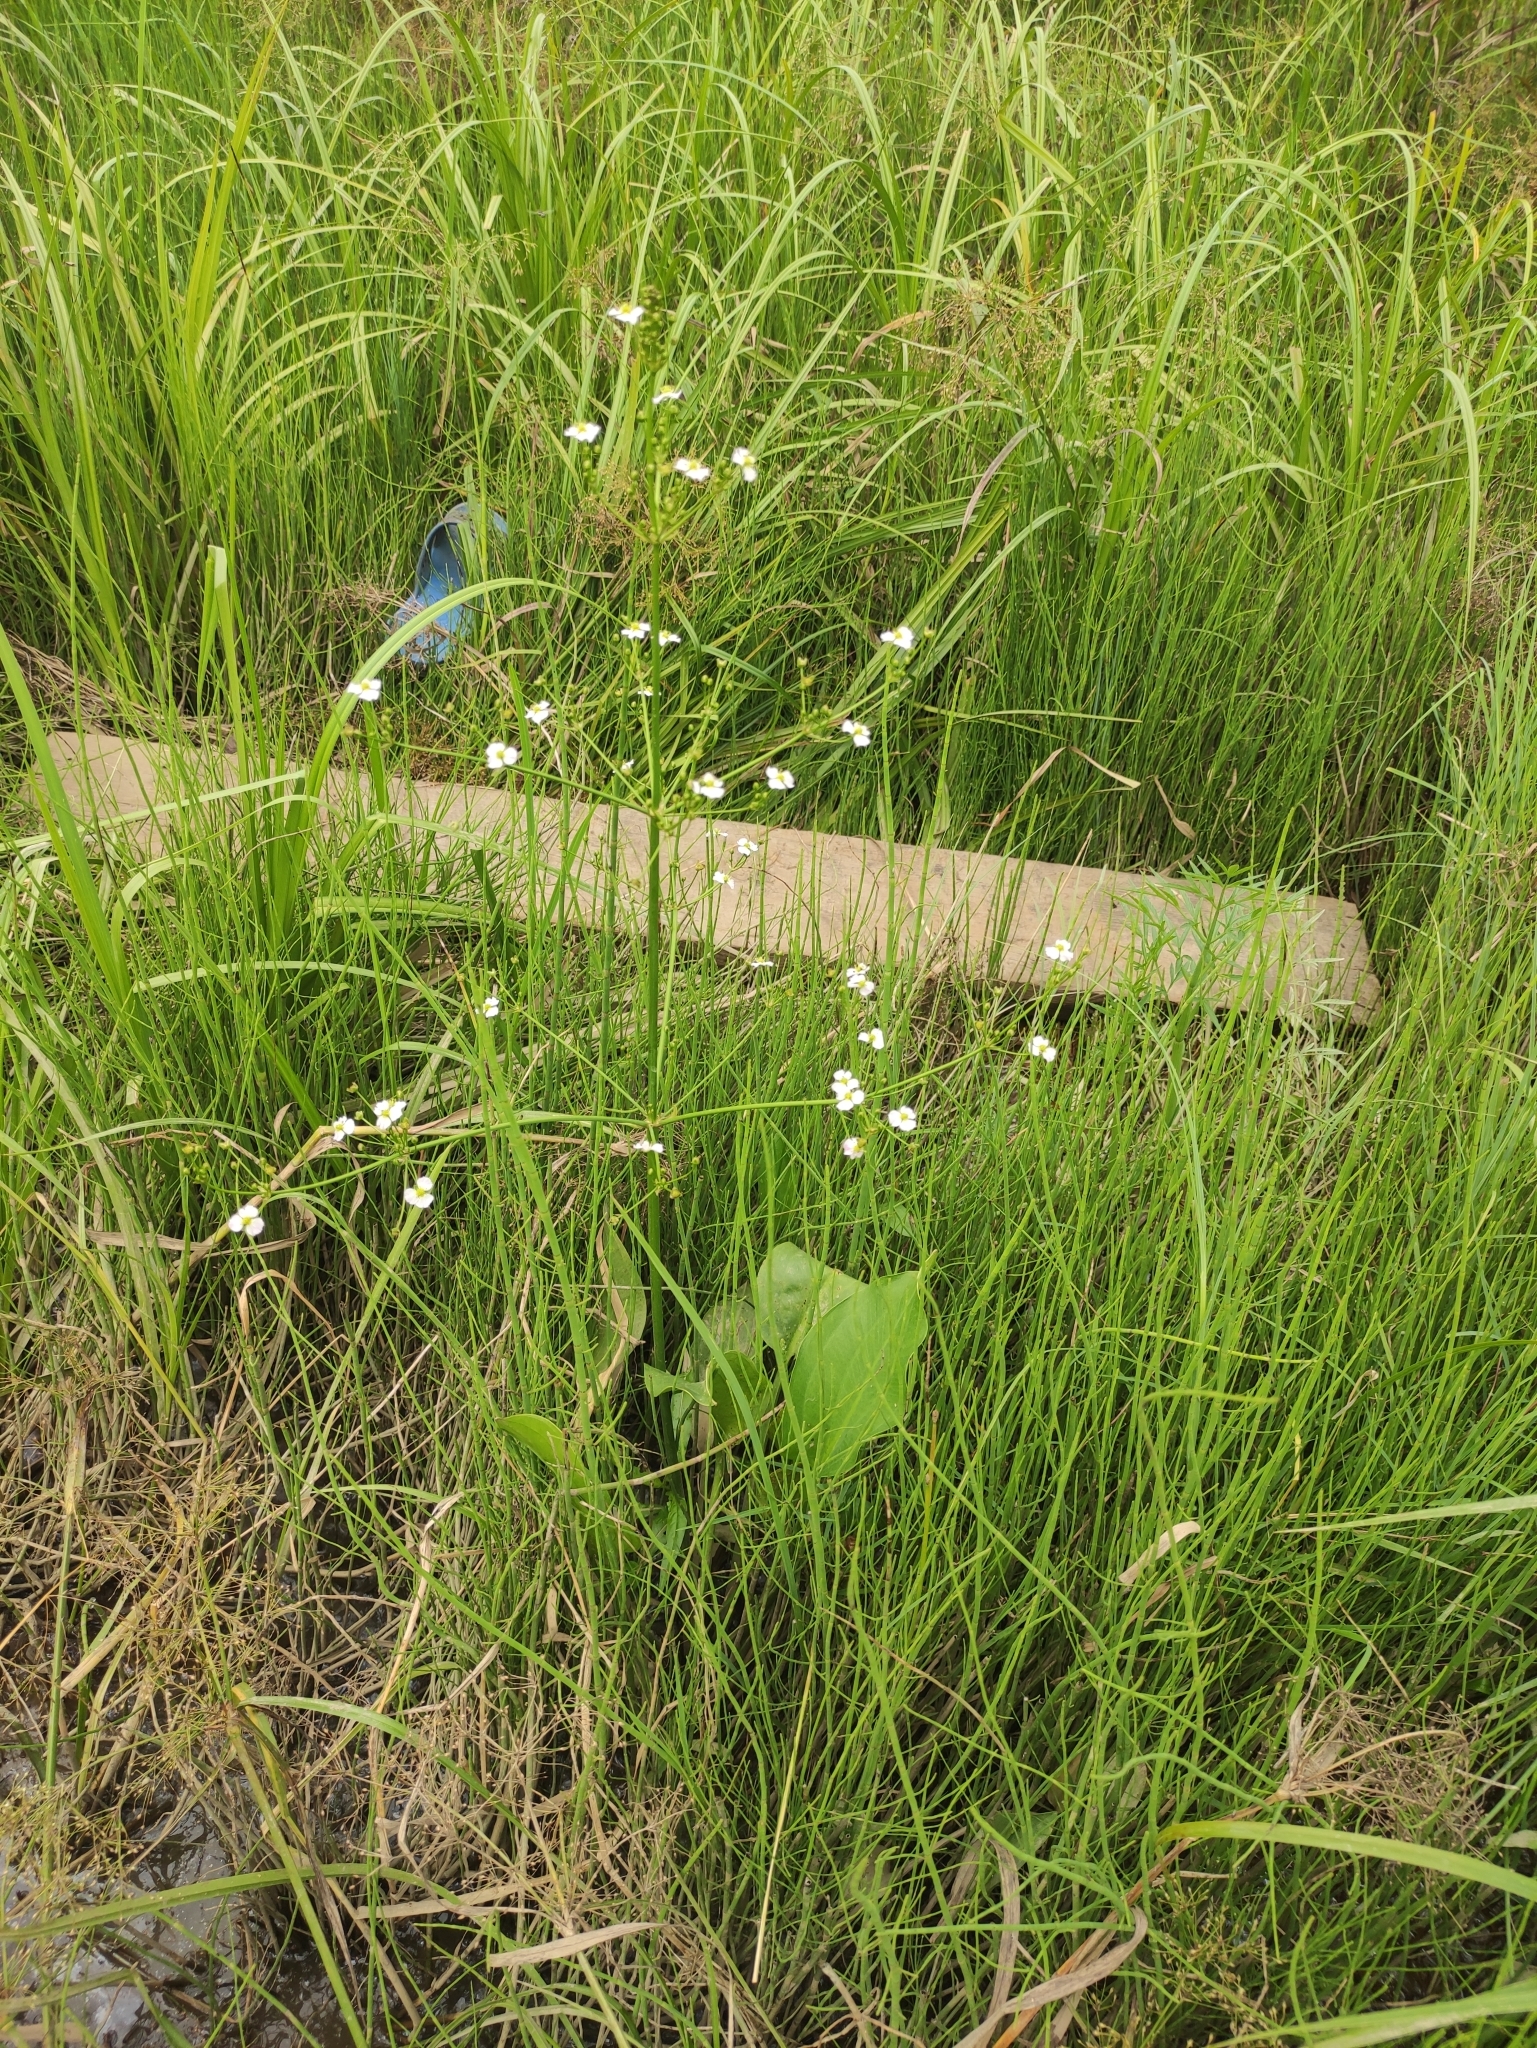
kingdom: Plantae
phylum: Tracheophyta
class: Liliopsida
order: Alismatales
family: Alismataceae
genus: Alisma
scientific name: Alisma plantago-aquatica
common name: Water-plantain
